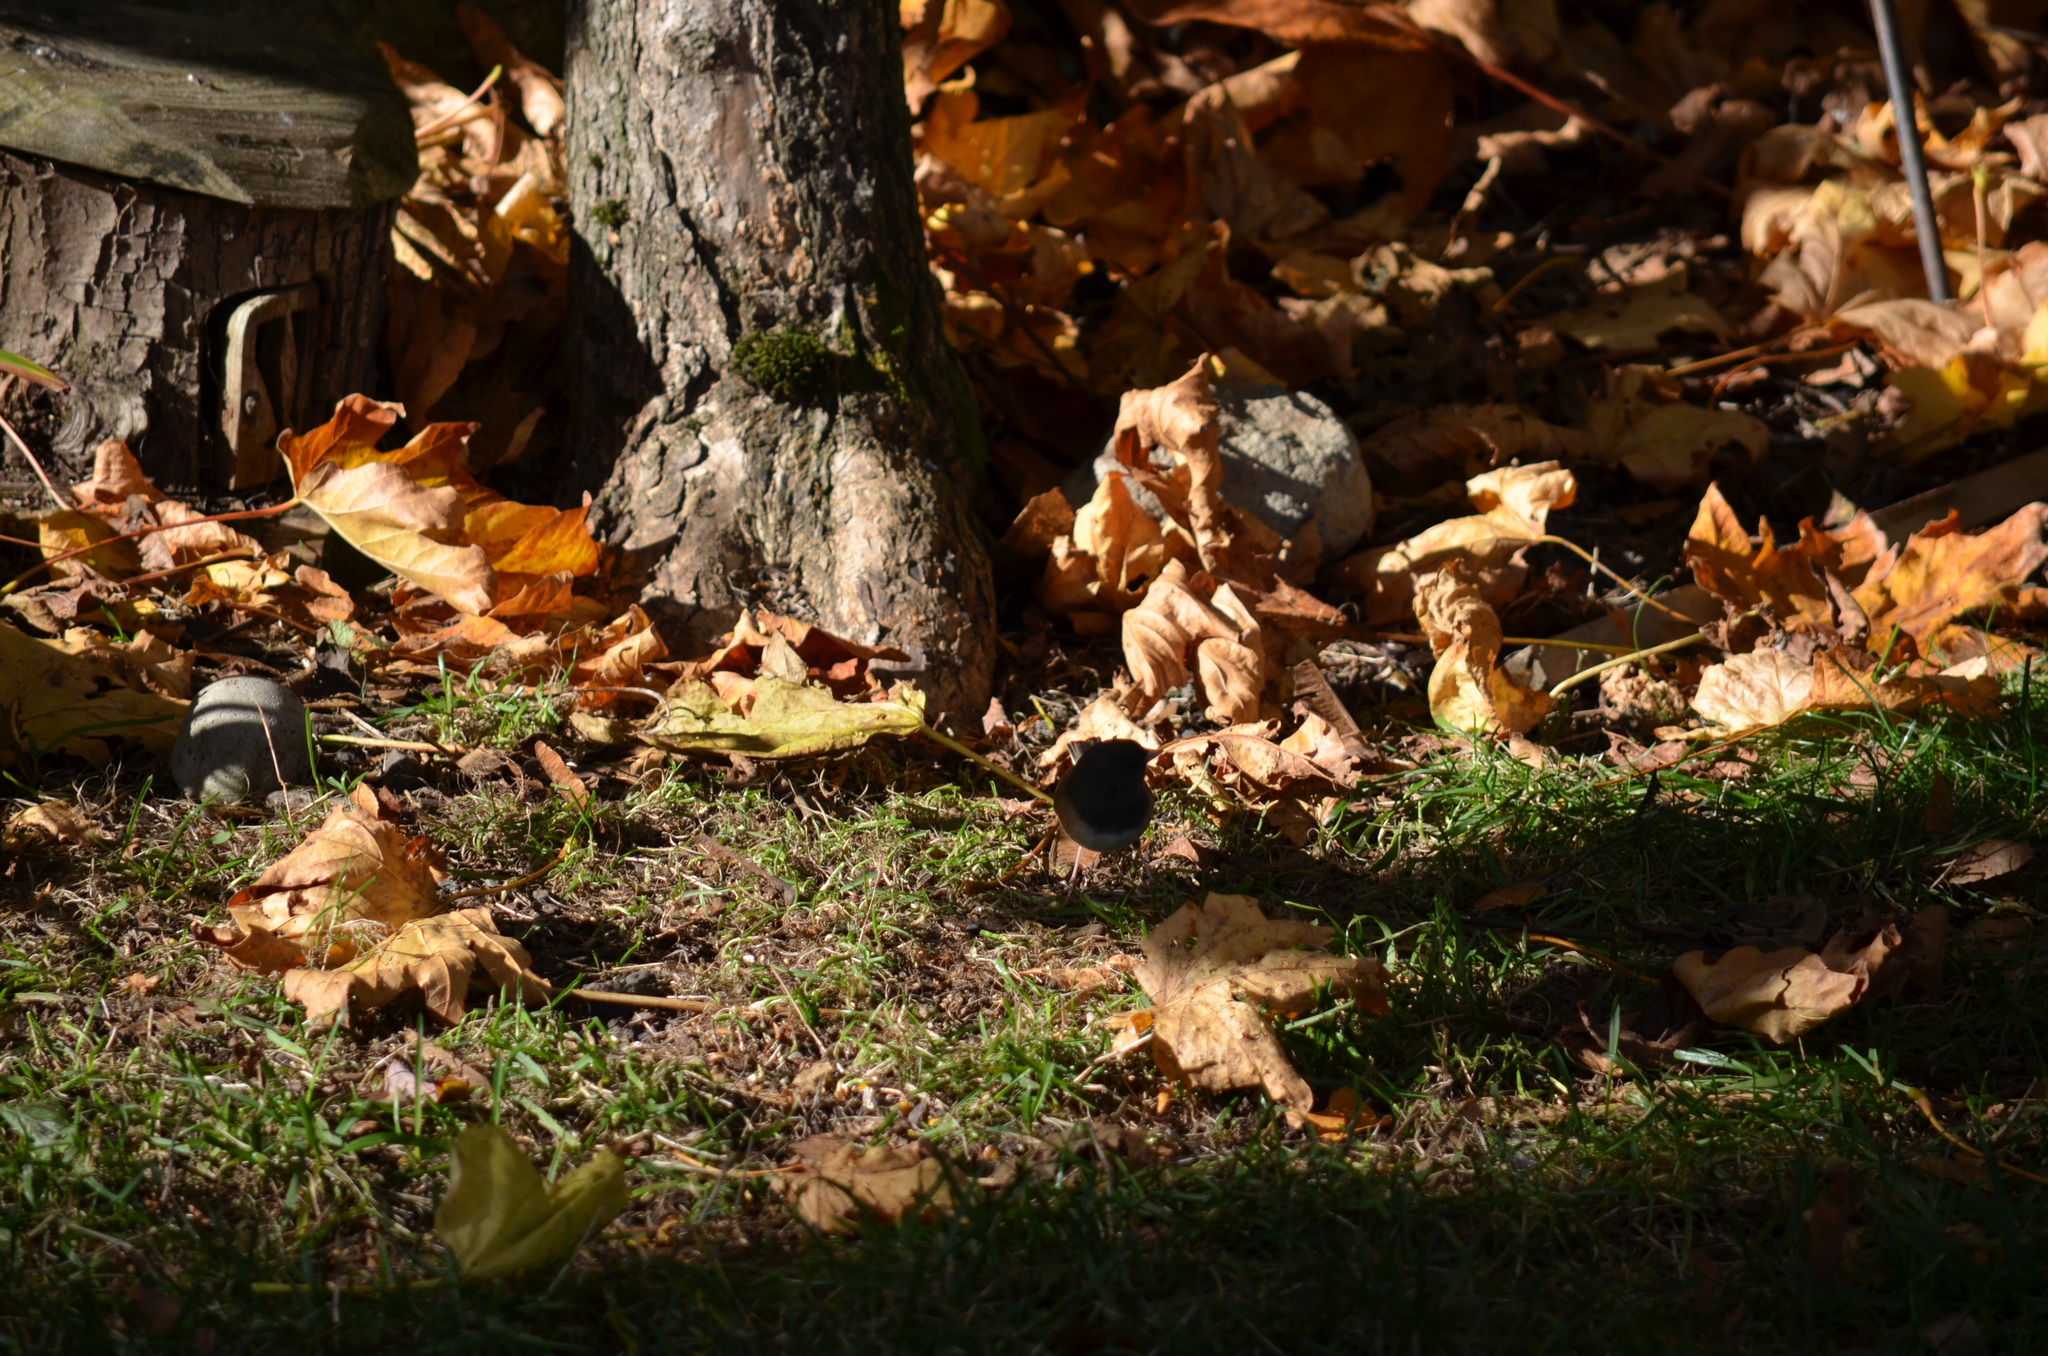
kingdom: Animalia
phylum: Chordata
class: Aves
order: Passeriformes
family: Passerellidae
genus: Junco
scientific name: Junco hyemalis
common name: Dark-eyed junco
